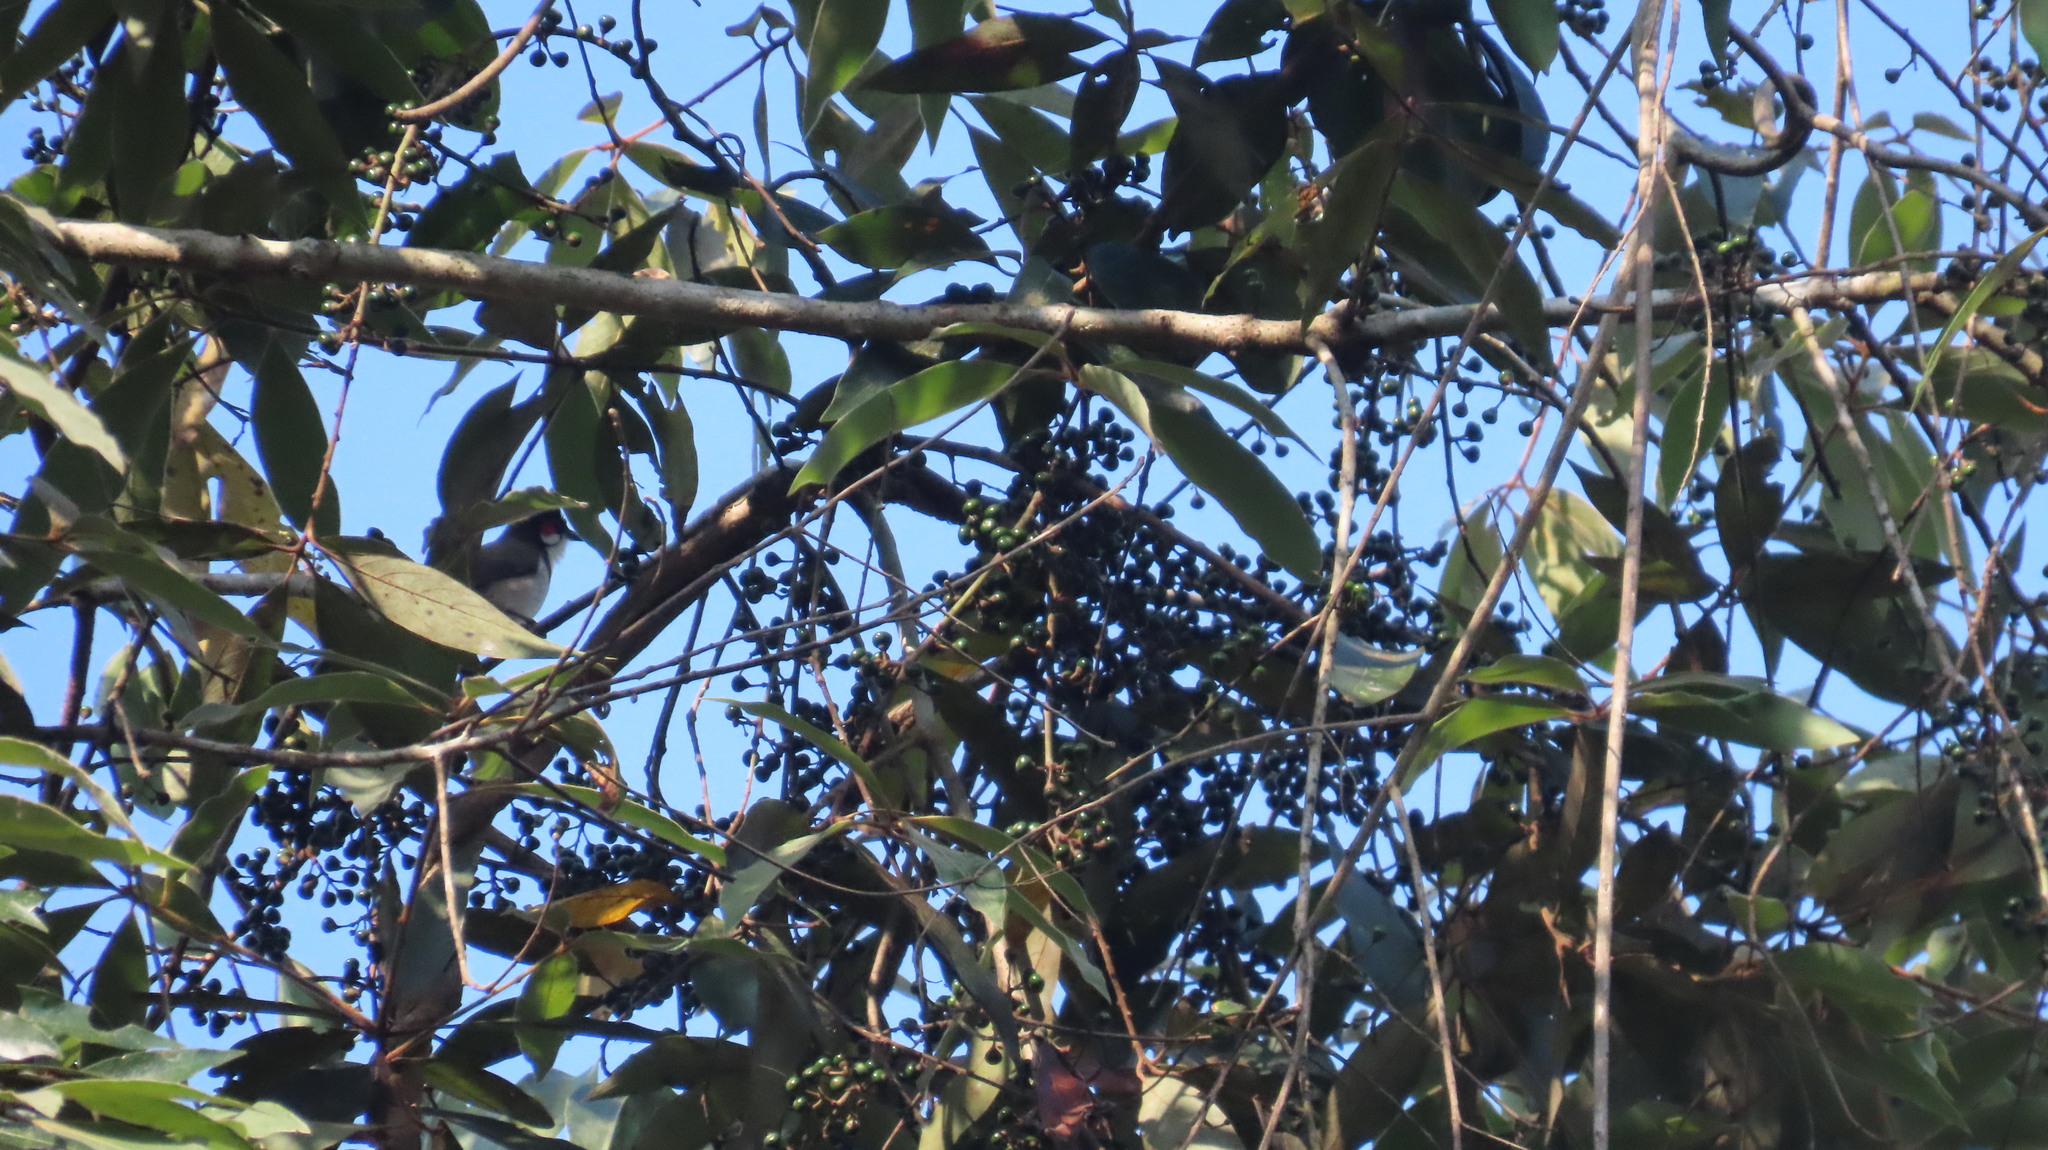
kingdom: Animalia
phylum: Chordata
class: Aves
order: Passeriformes
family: Pycnonotidae
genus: Pycnonotus
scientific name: Pycnonotus jocosus
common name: Red-whiskered bulbul
